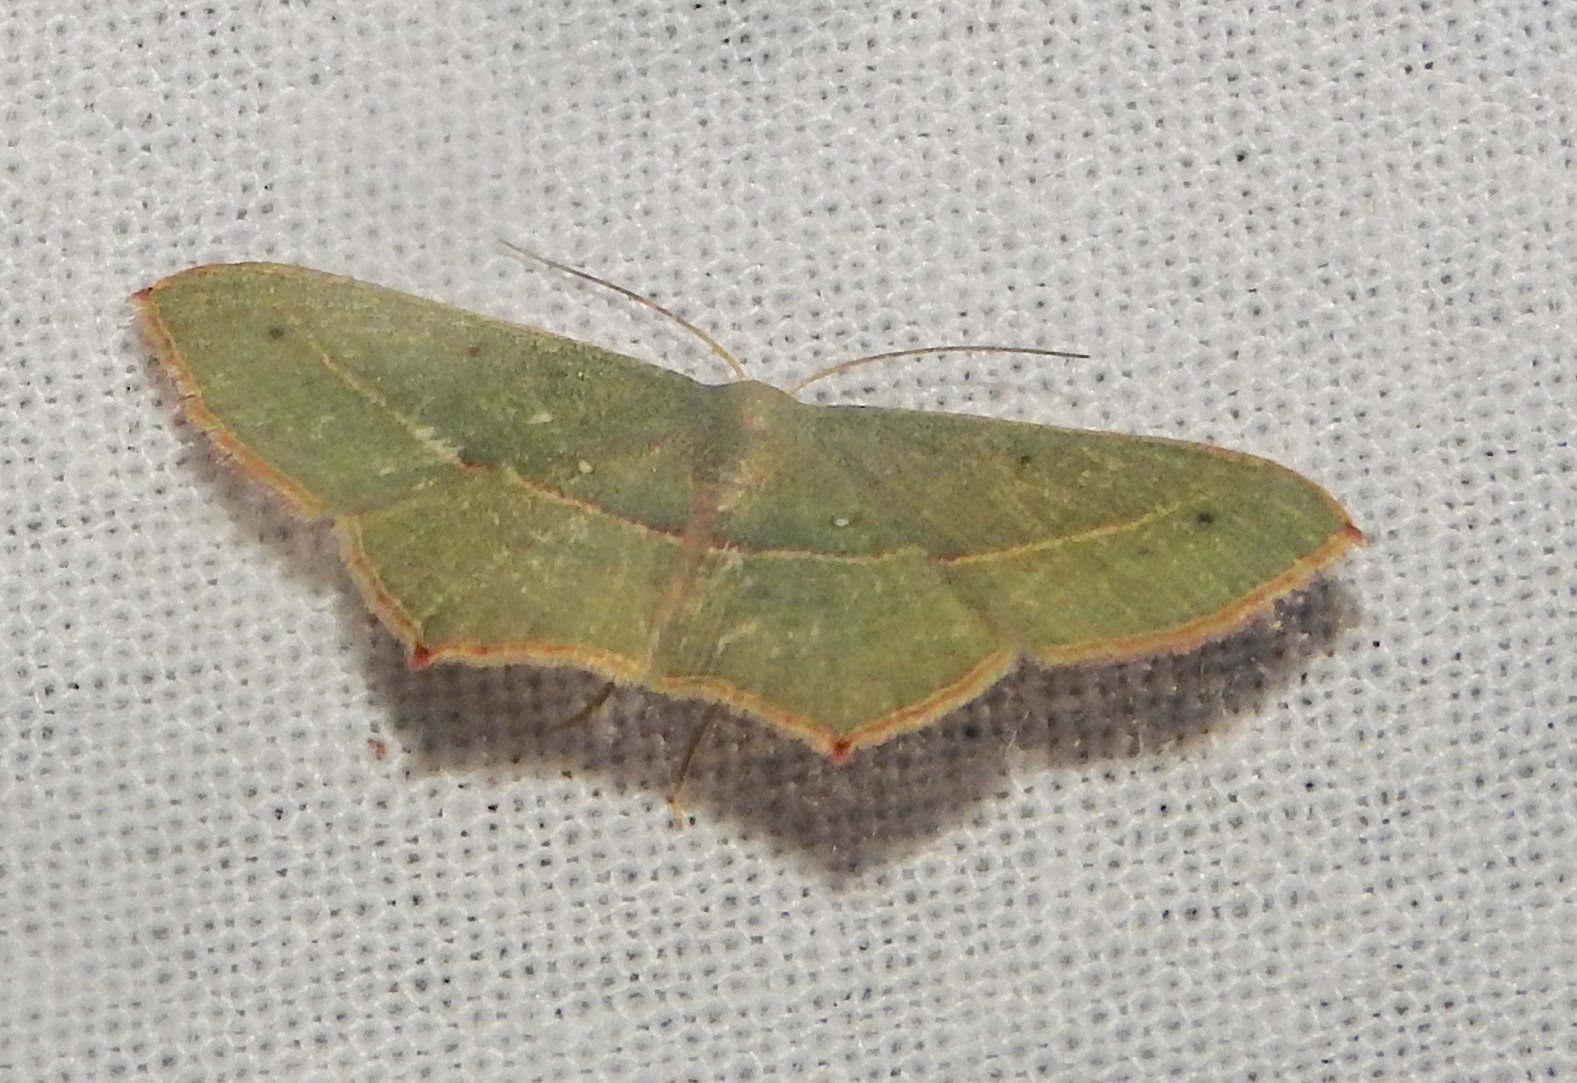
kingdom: Animalia
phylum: Arthropoda
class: Insecta
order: Lepidoptera
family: Geometridae
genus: Traminda
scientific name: Traminda mundissima
